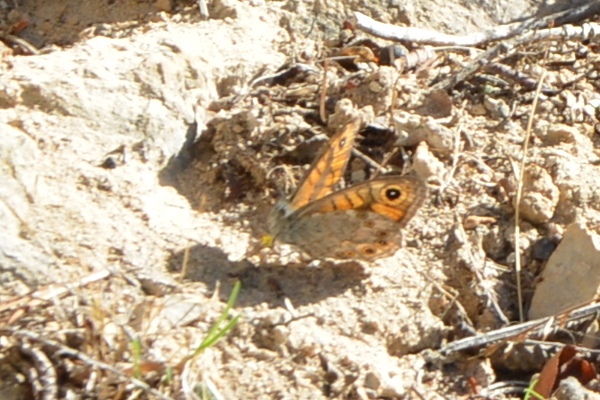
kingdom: Animalia
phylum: Arthropoda
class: Insecta
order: Lepidoptera
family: Nymphalidae
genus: Pararge
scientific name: Pararge Lasiommata megera
